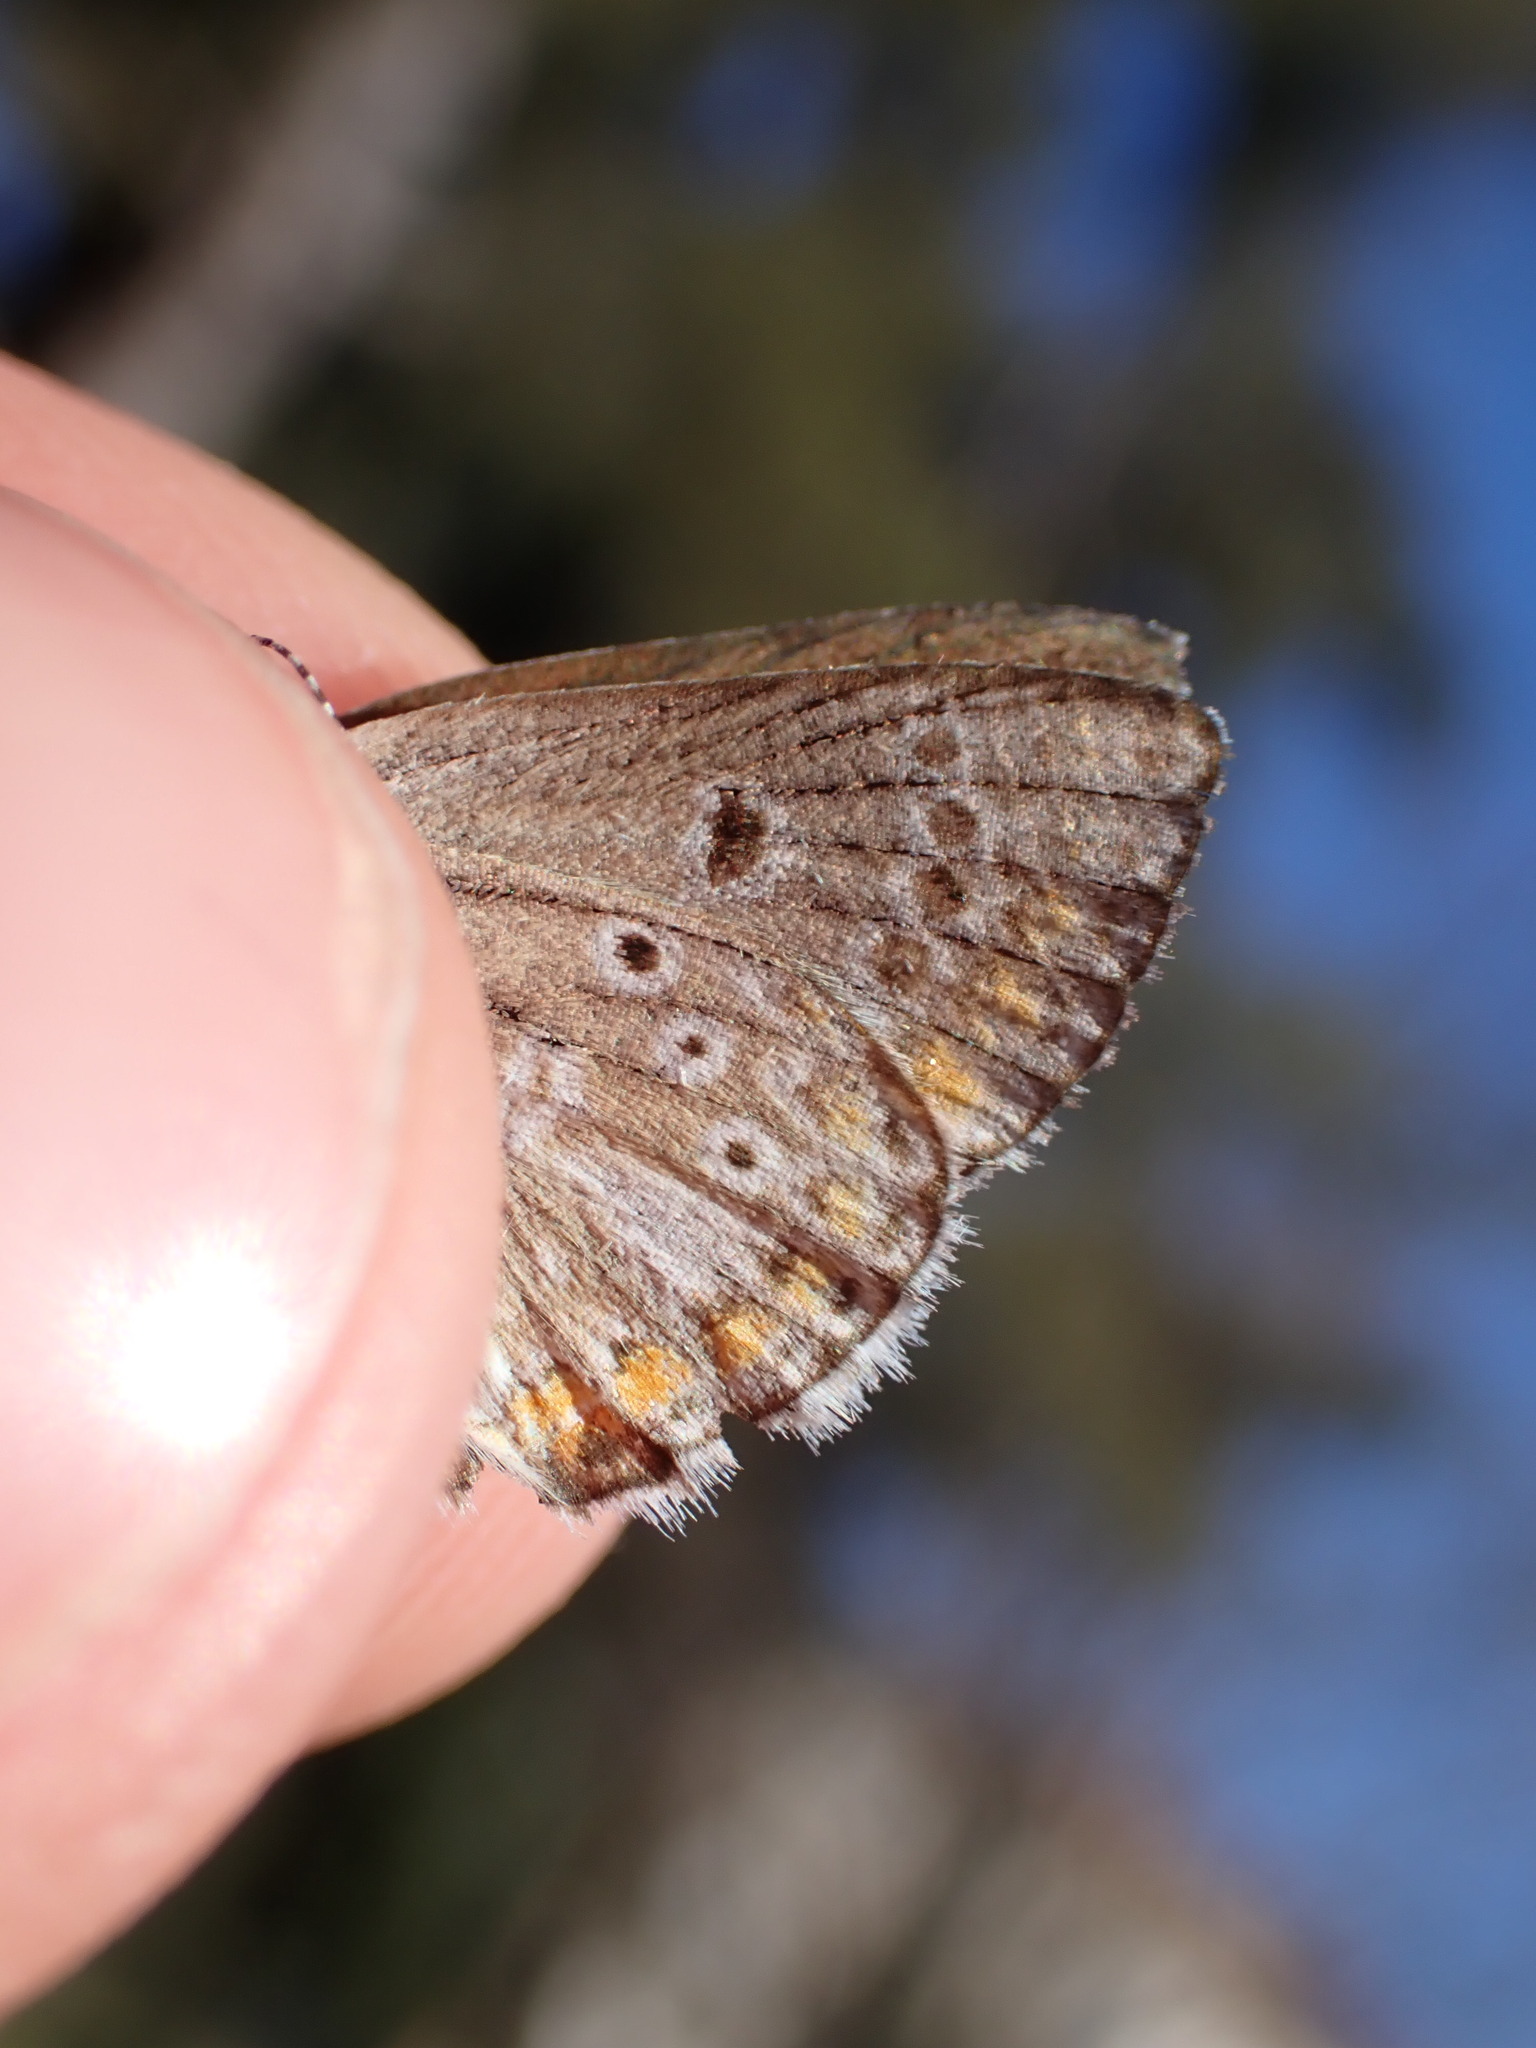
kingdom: Animalia
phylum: Arthropoda
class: Insecta
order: Lepidoptera
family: Lycaenidae
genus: Aricia
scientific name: Aricia agestis
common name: Brown argus
